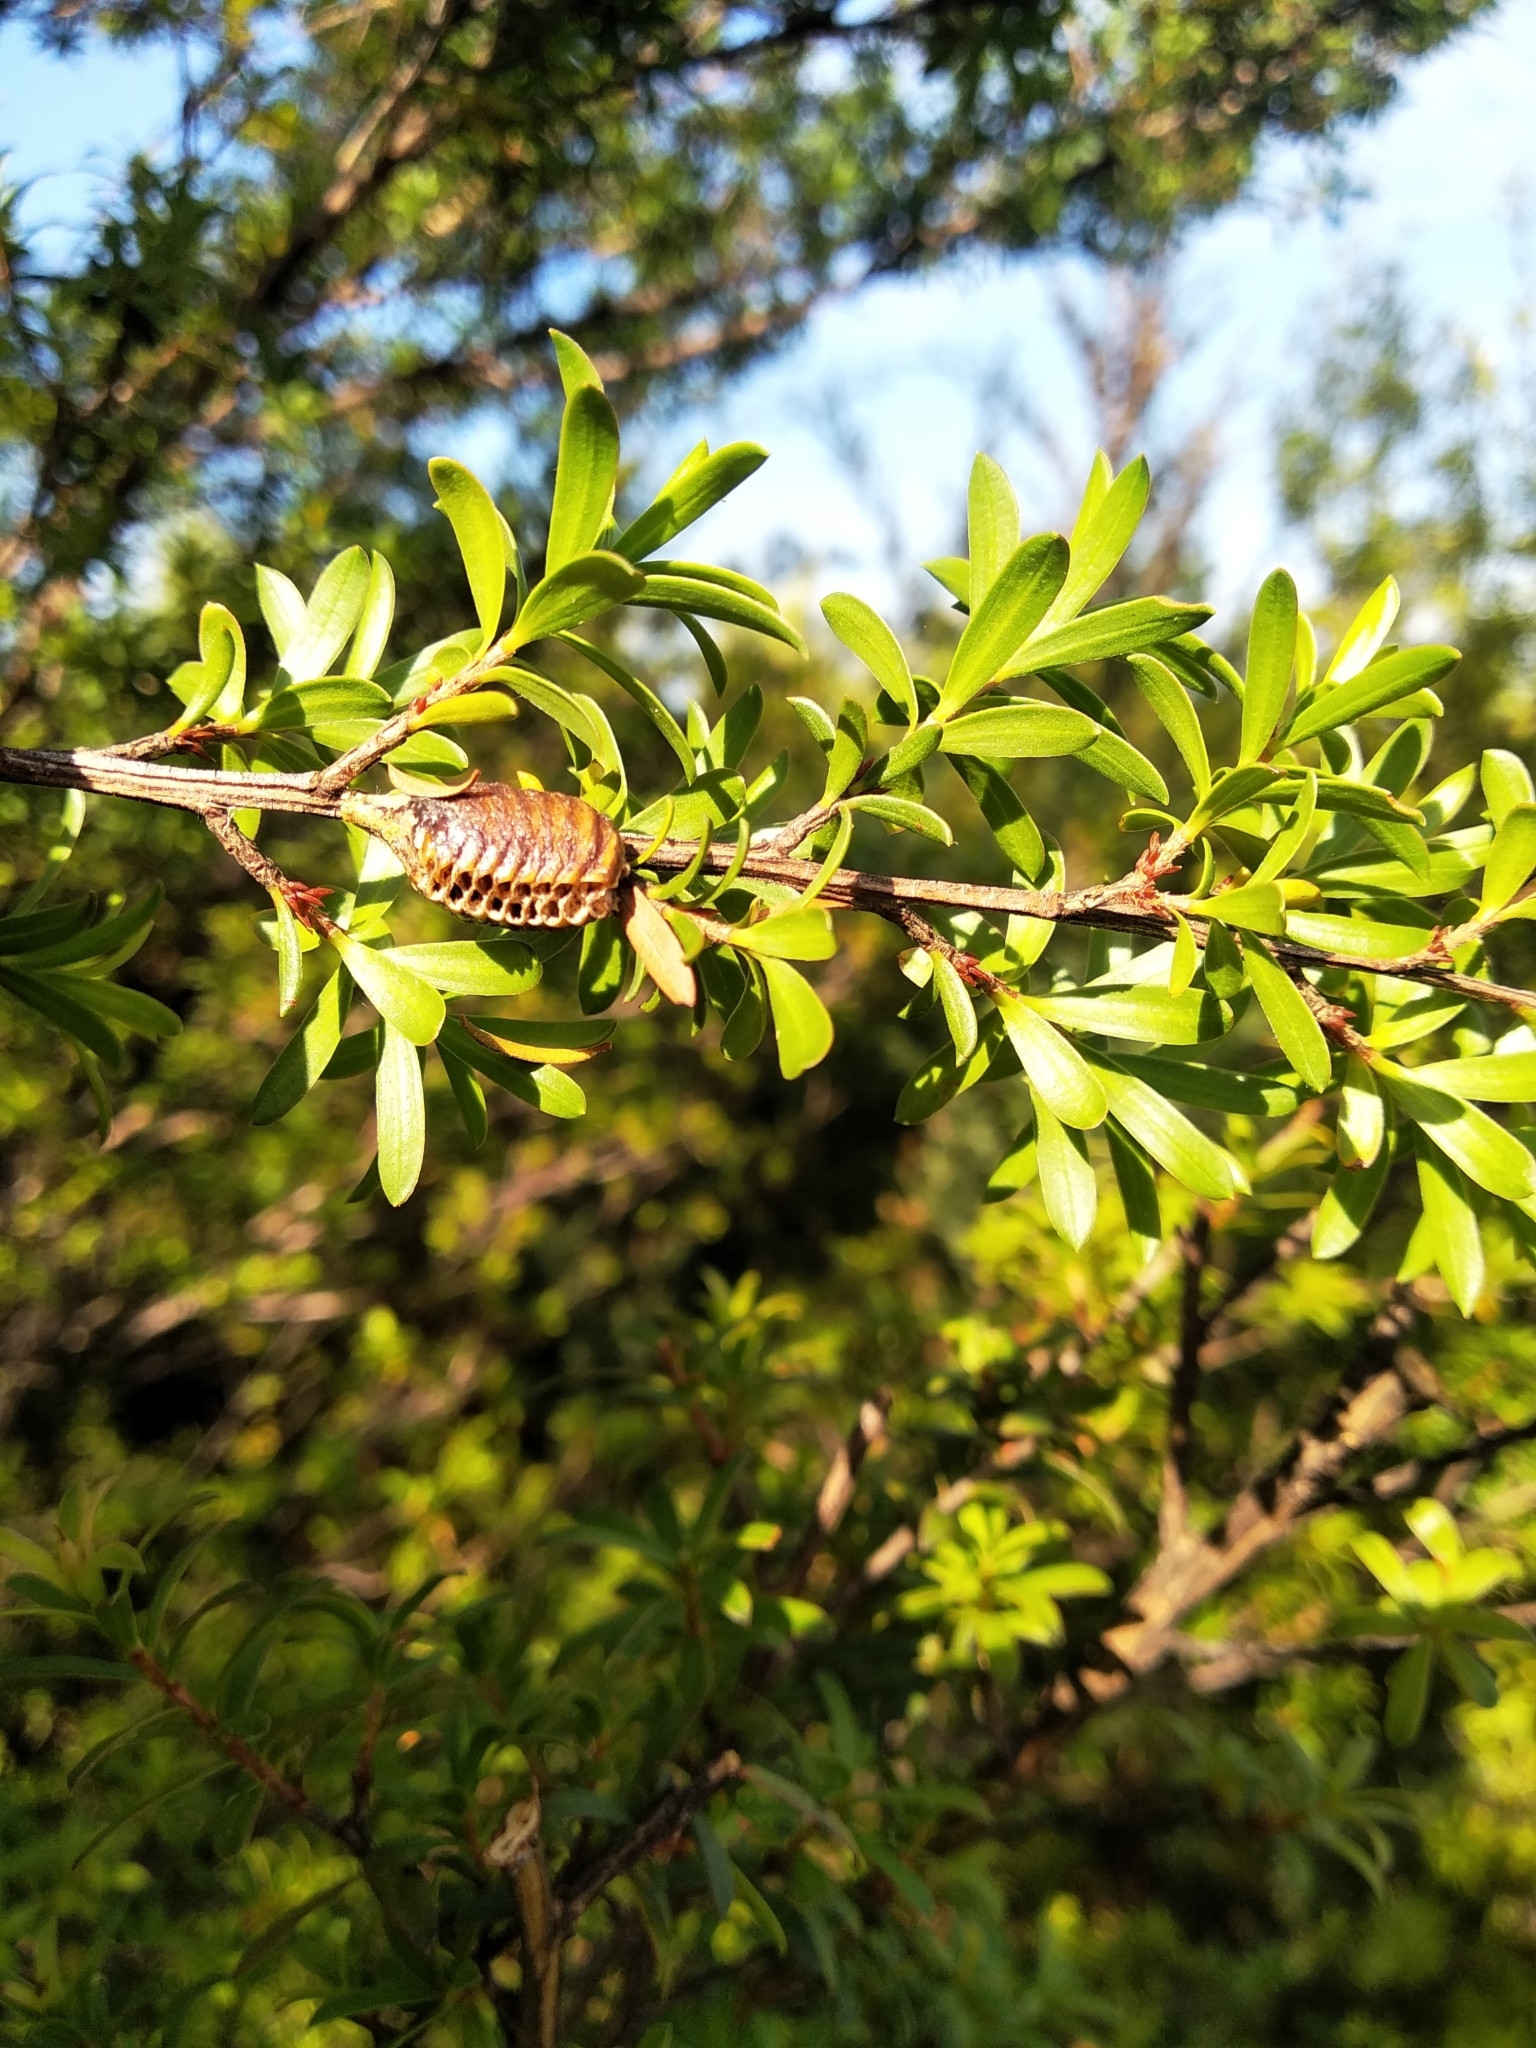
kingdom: Animalia
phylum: Arthropoda
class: Insecta
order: Mantodea
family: Mantidae
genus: Orthodera
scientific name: Orthodera novaezealandiae
